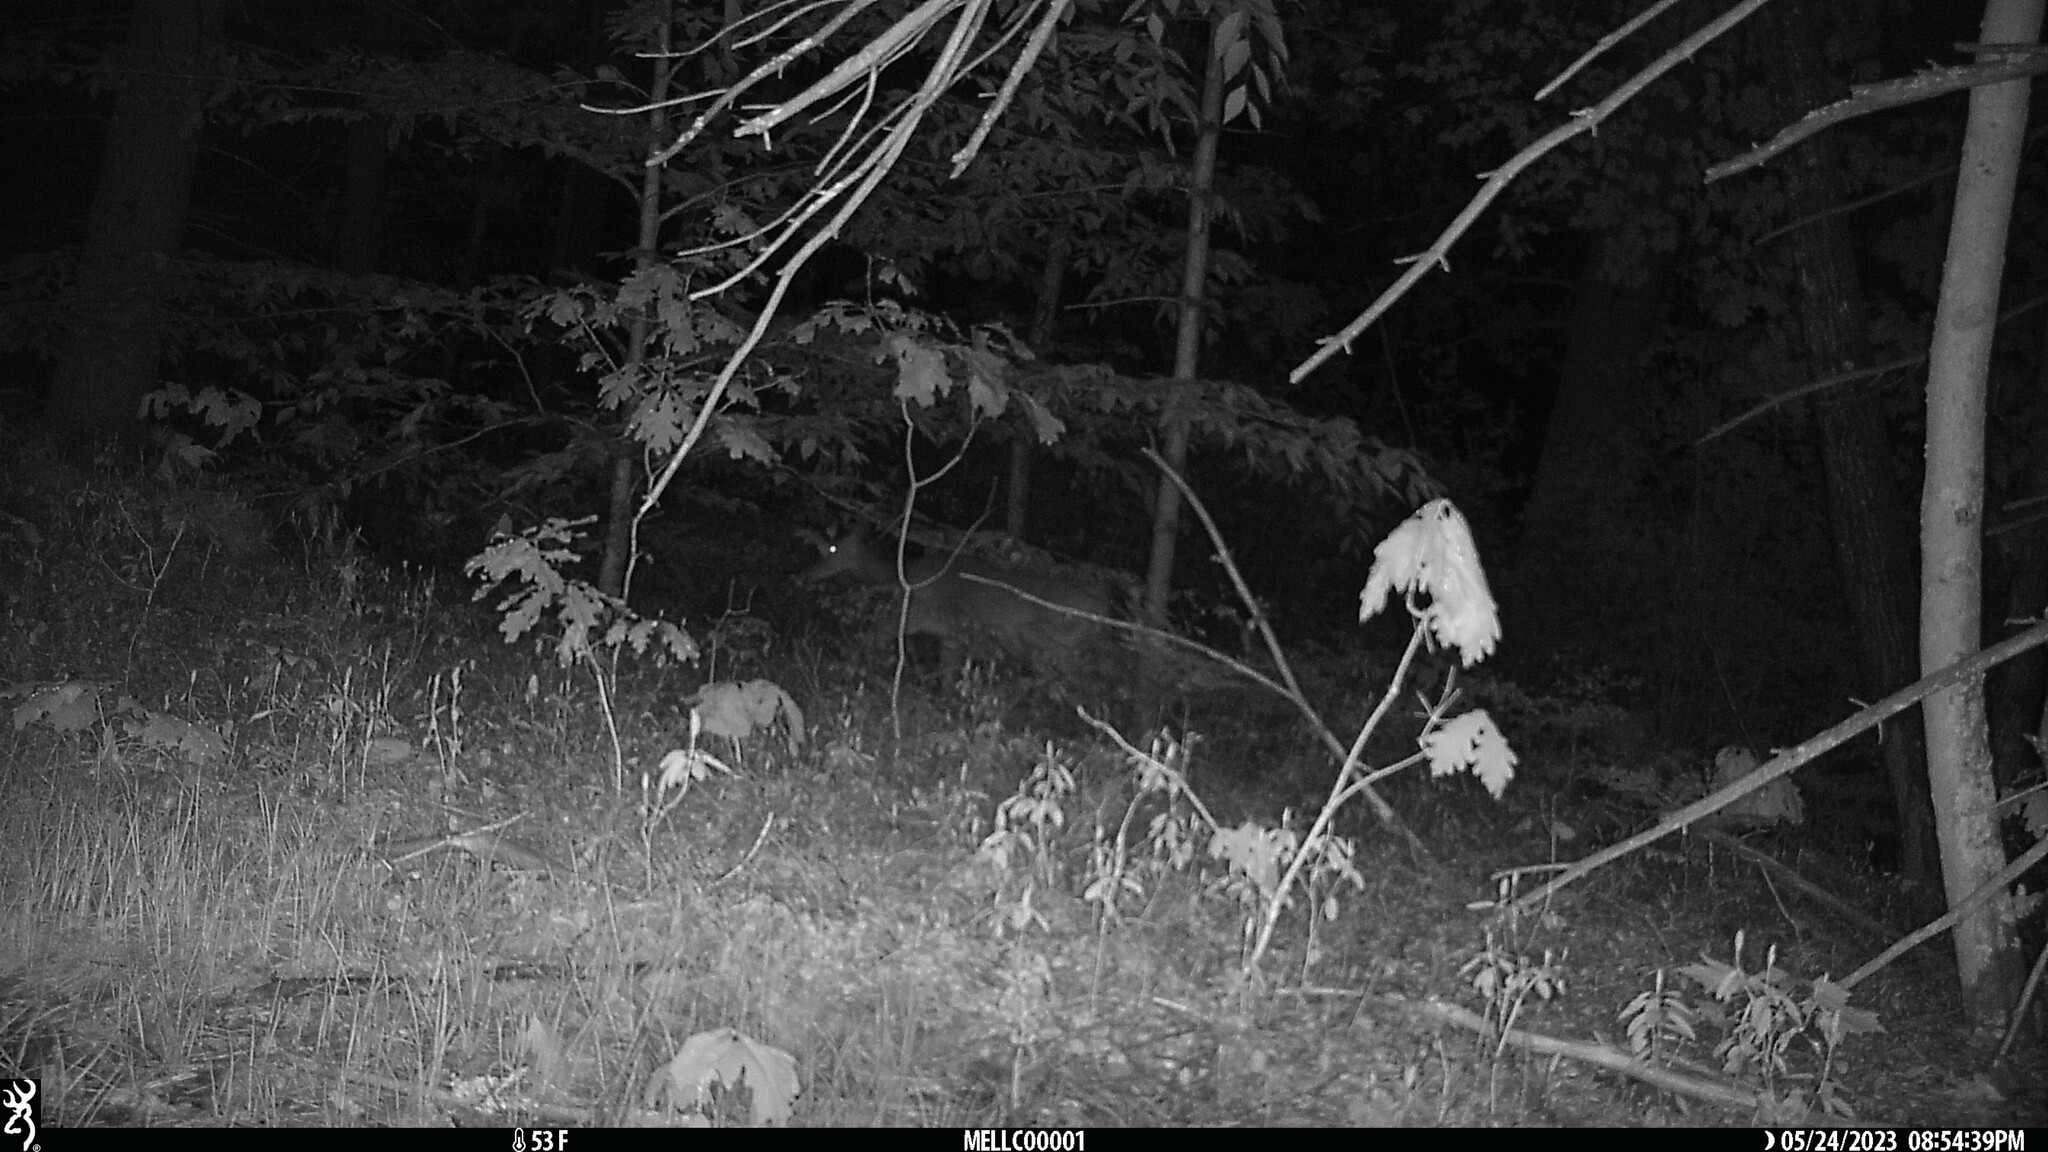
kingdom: Animalia
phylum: Chordata
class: Mammalia
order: Artiodactyla
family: Cervidae
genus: Odocoileus
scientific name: Odocoileus virginianus
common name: White-tailed deer
